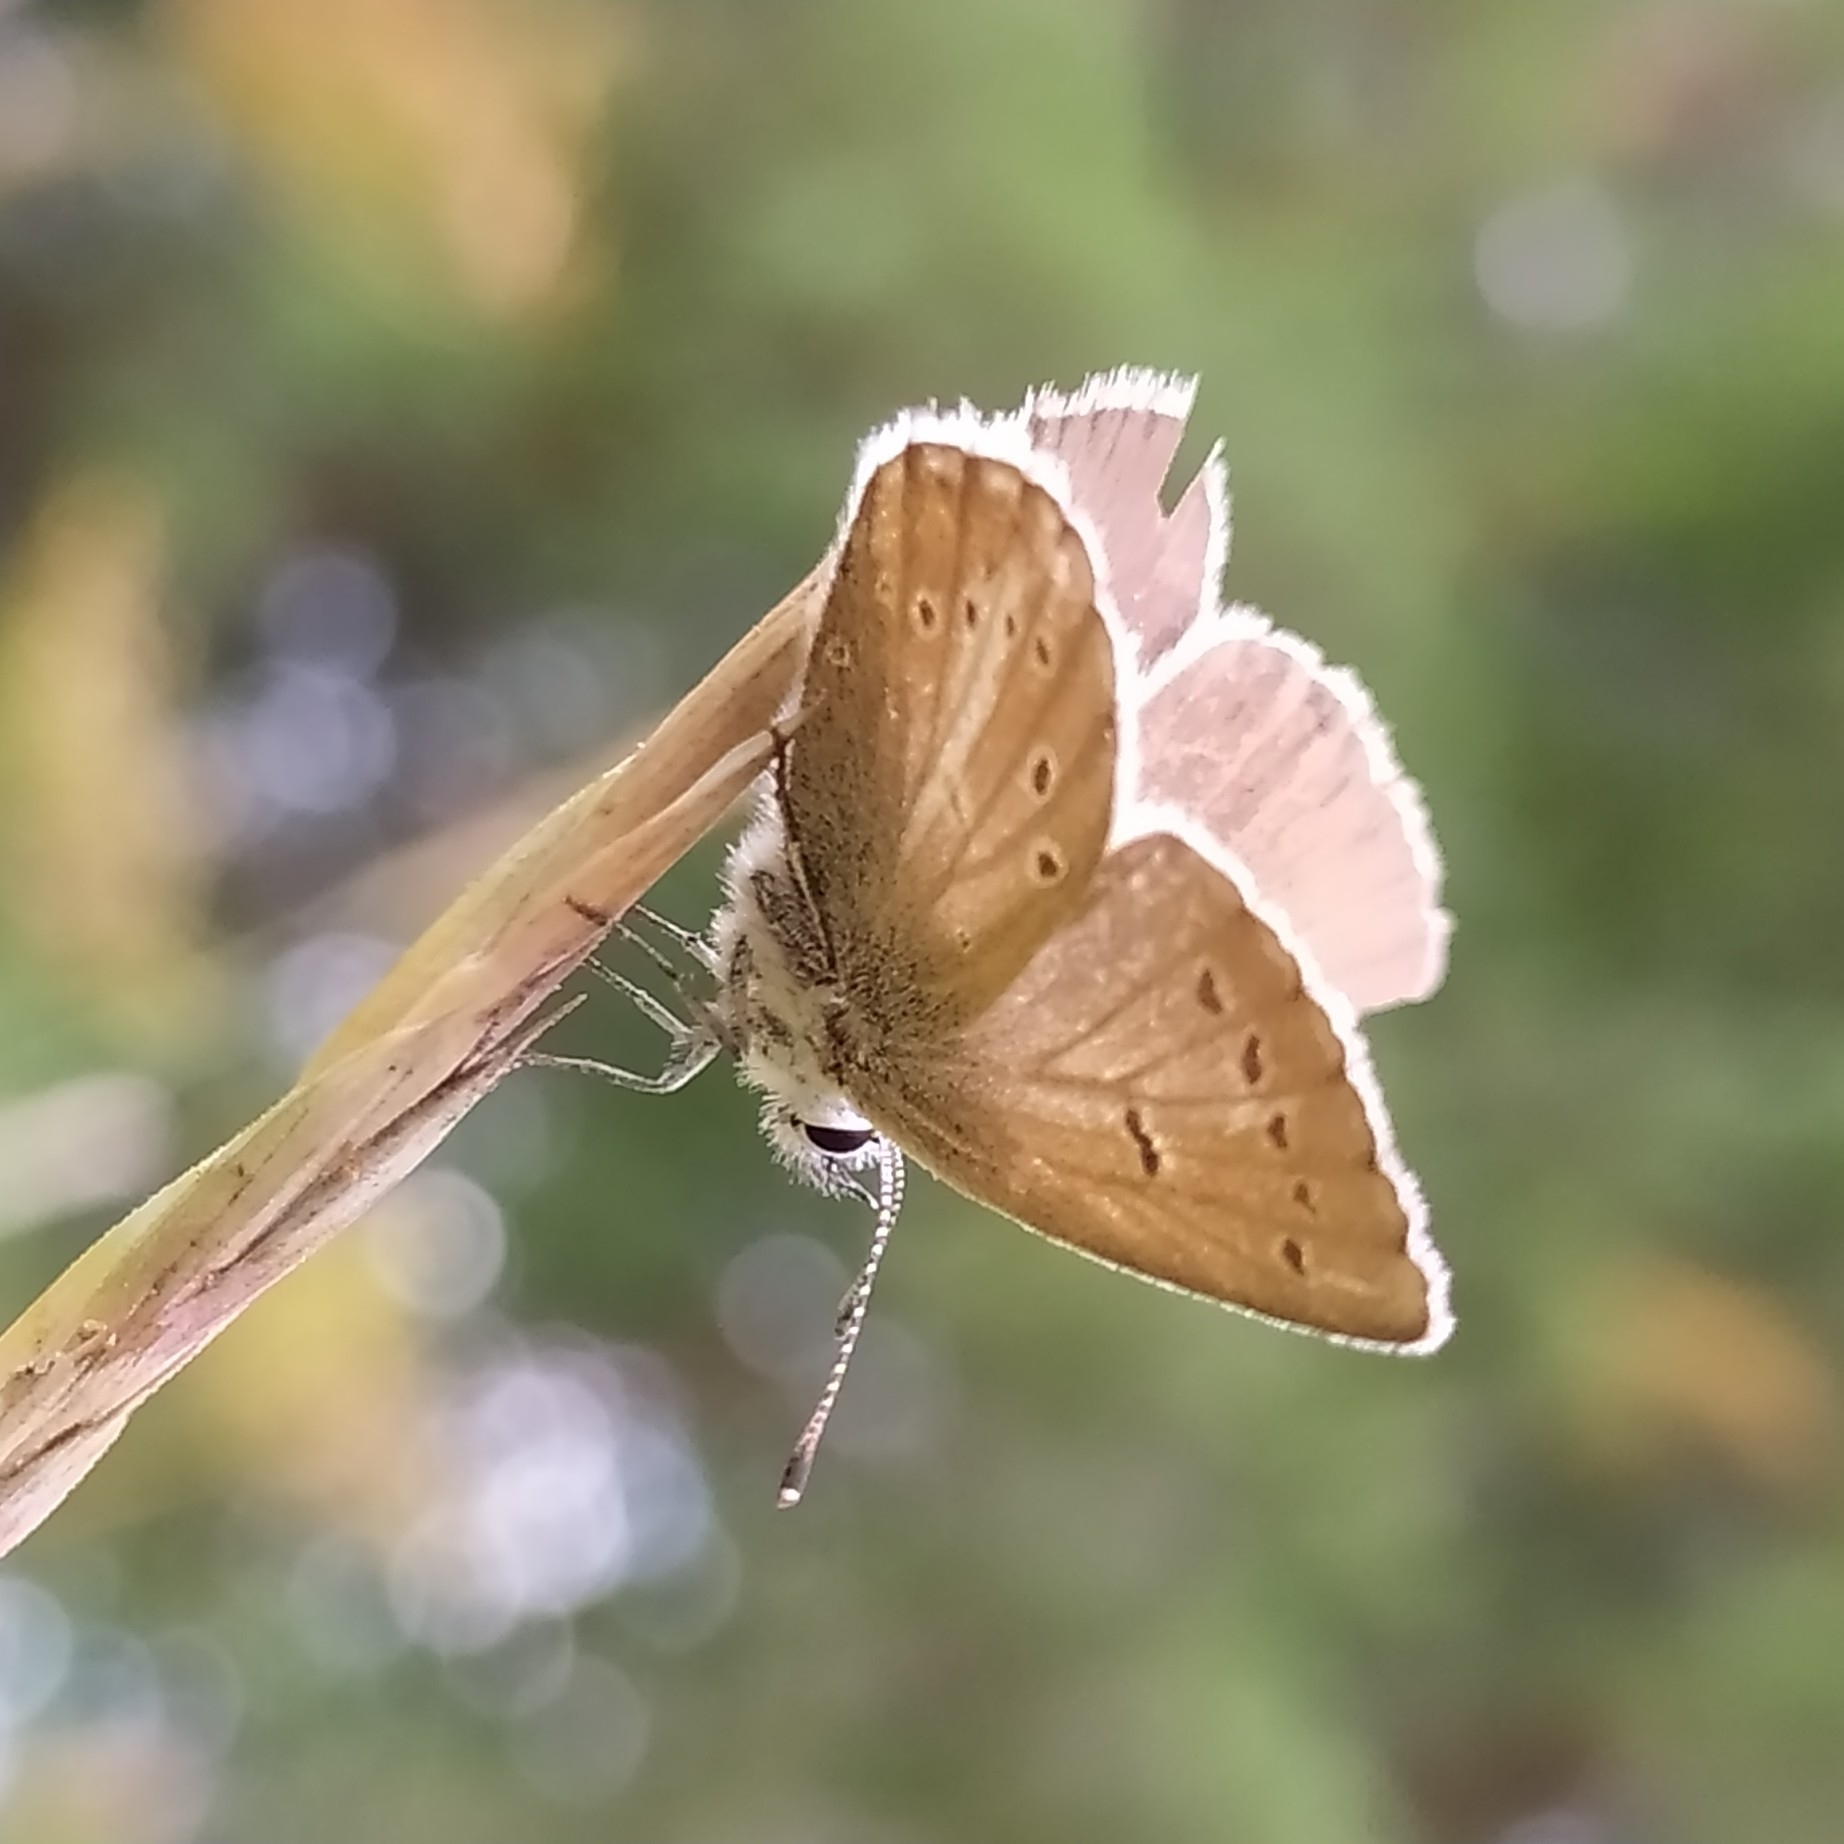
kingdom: Animalia
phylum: Arthropoda
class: Insecta
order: Lepidoptera
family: Lycaenidae
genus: Pseudoaricia
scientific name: Pseudoaricia nicias
